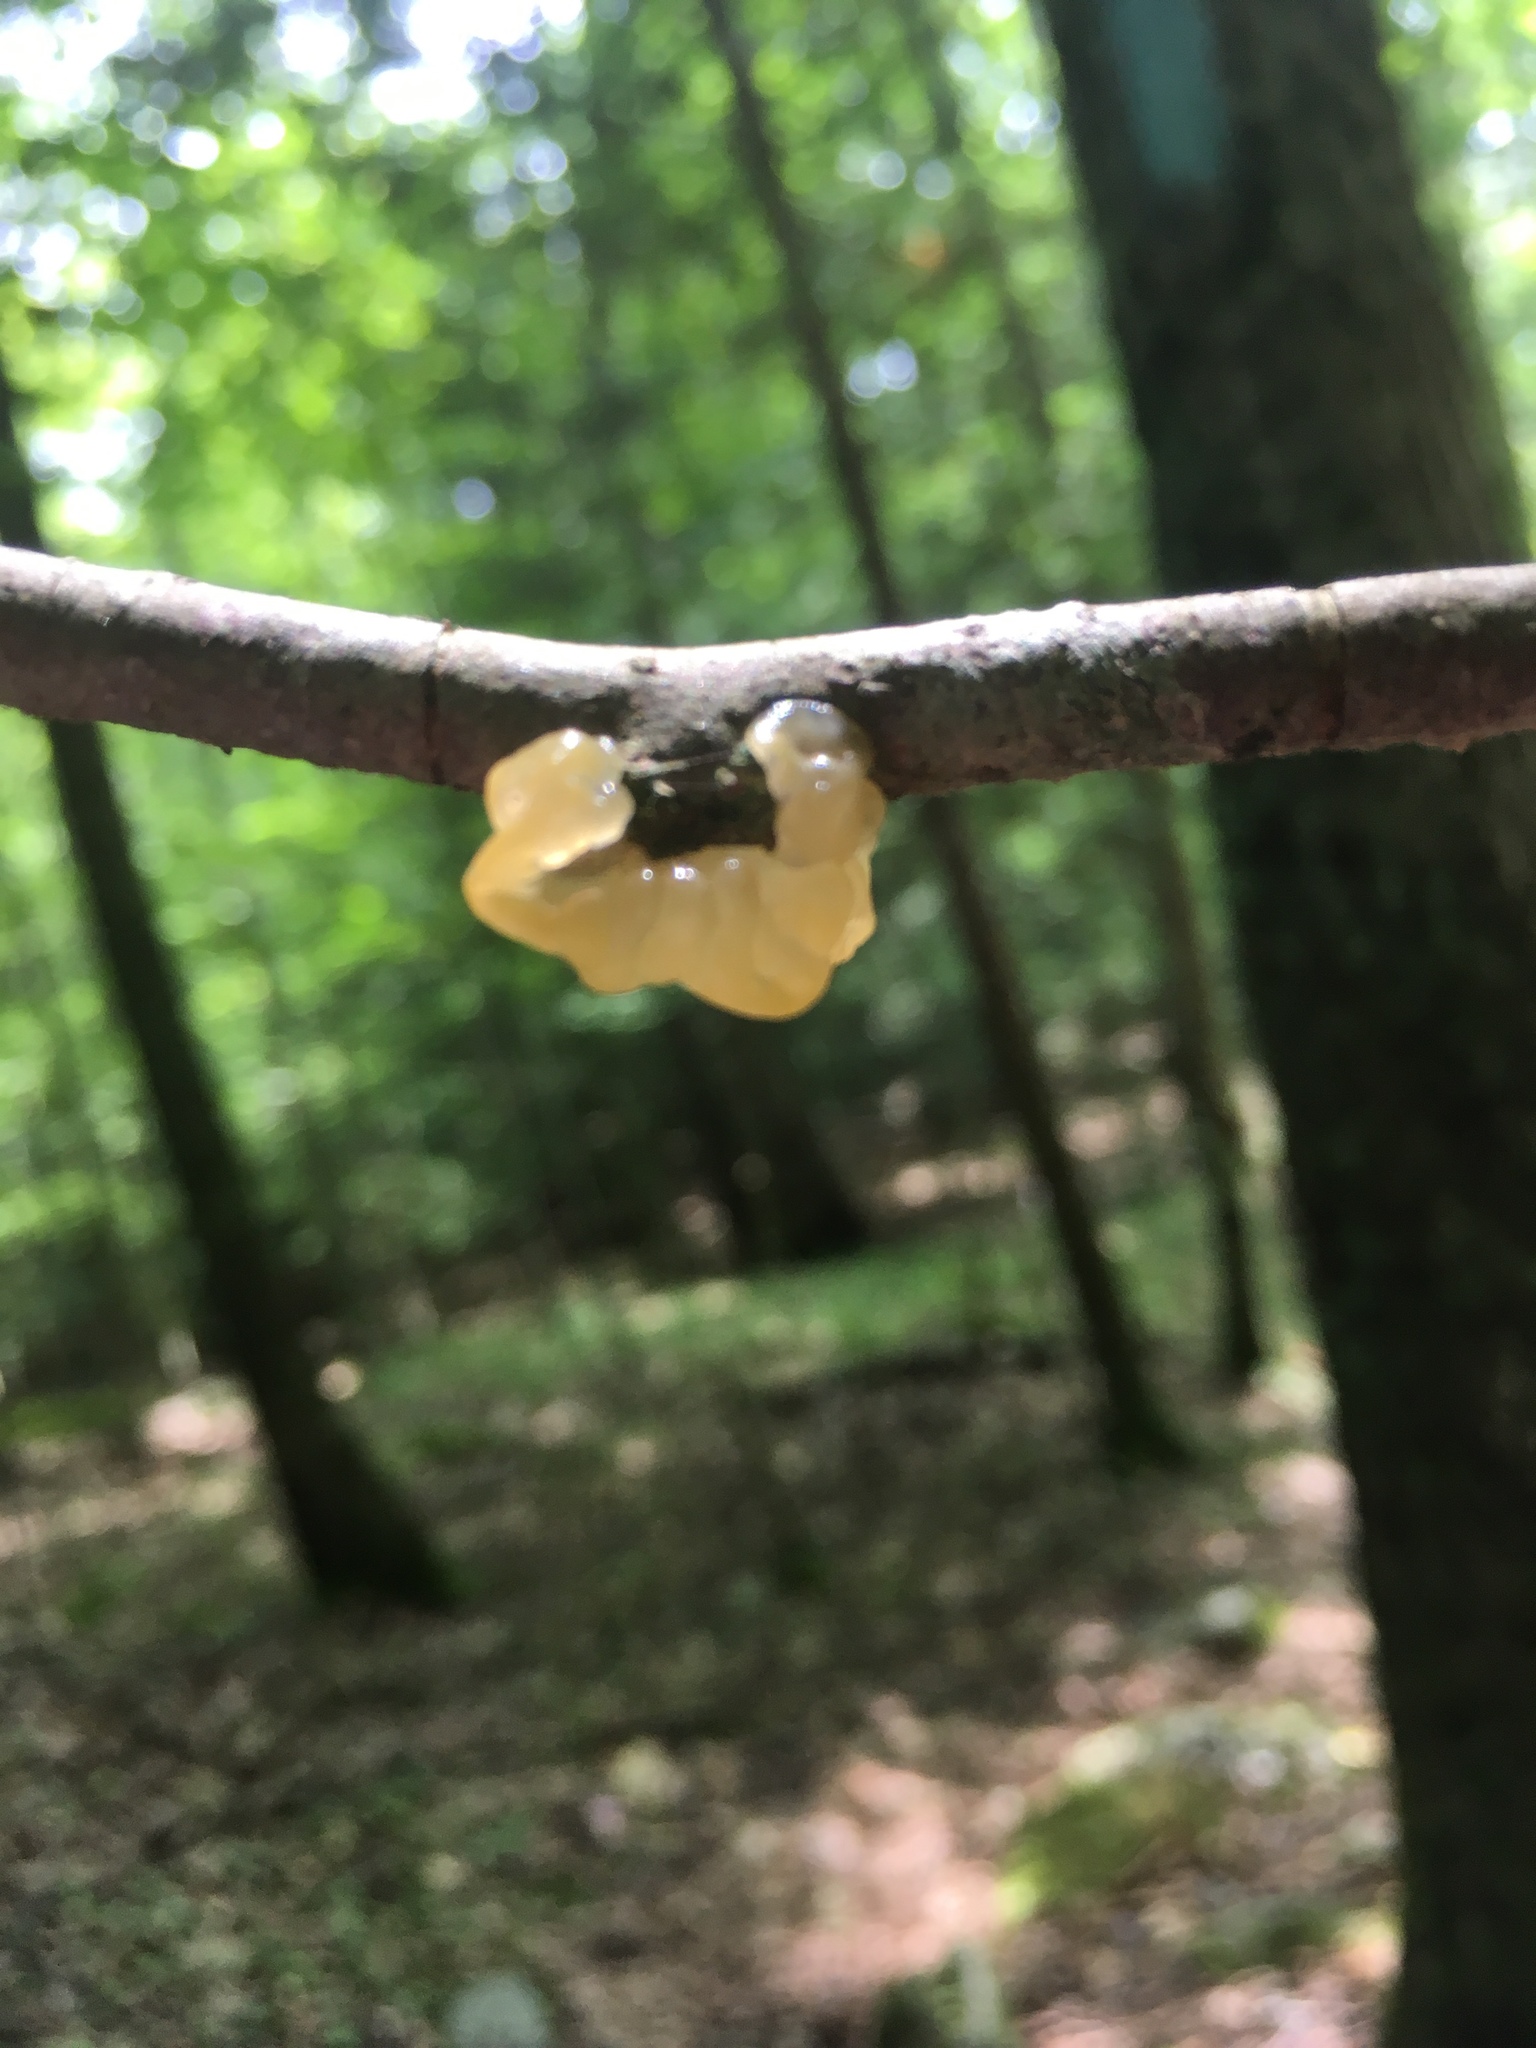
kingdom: Fungi
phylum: Basidiomycota
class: Agaricomycetes
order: Auriculariales
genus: Ductifera
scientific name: Ductifera pululahuana
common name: White jelly fungus
